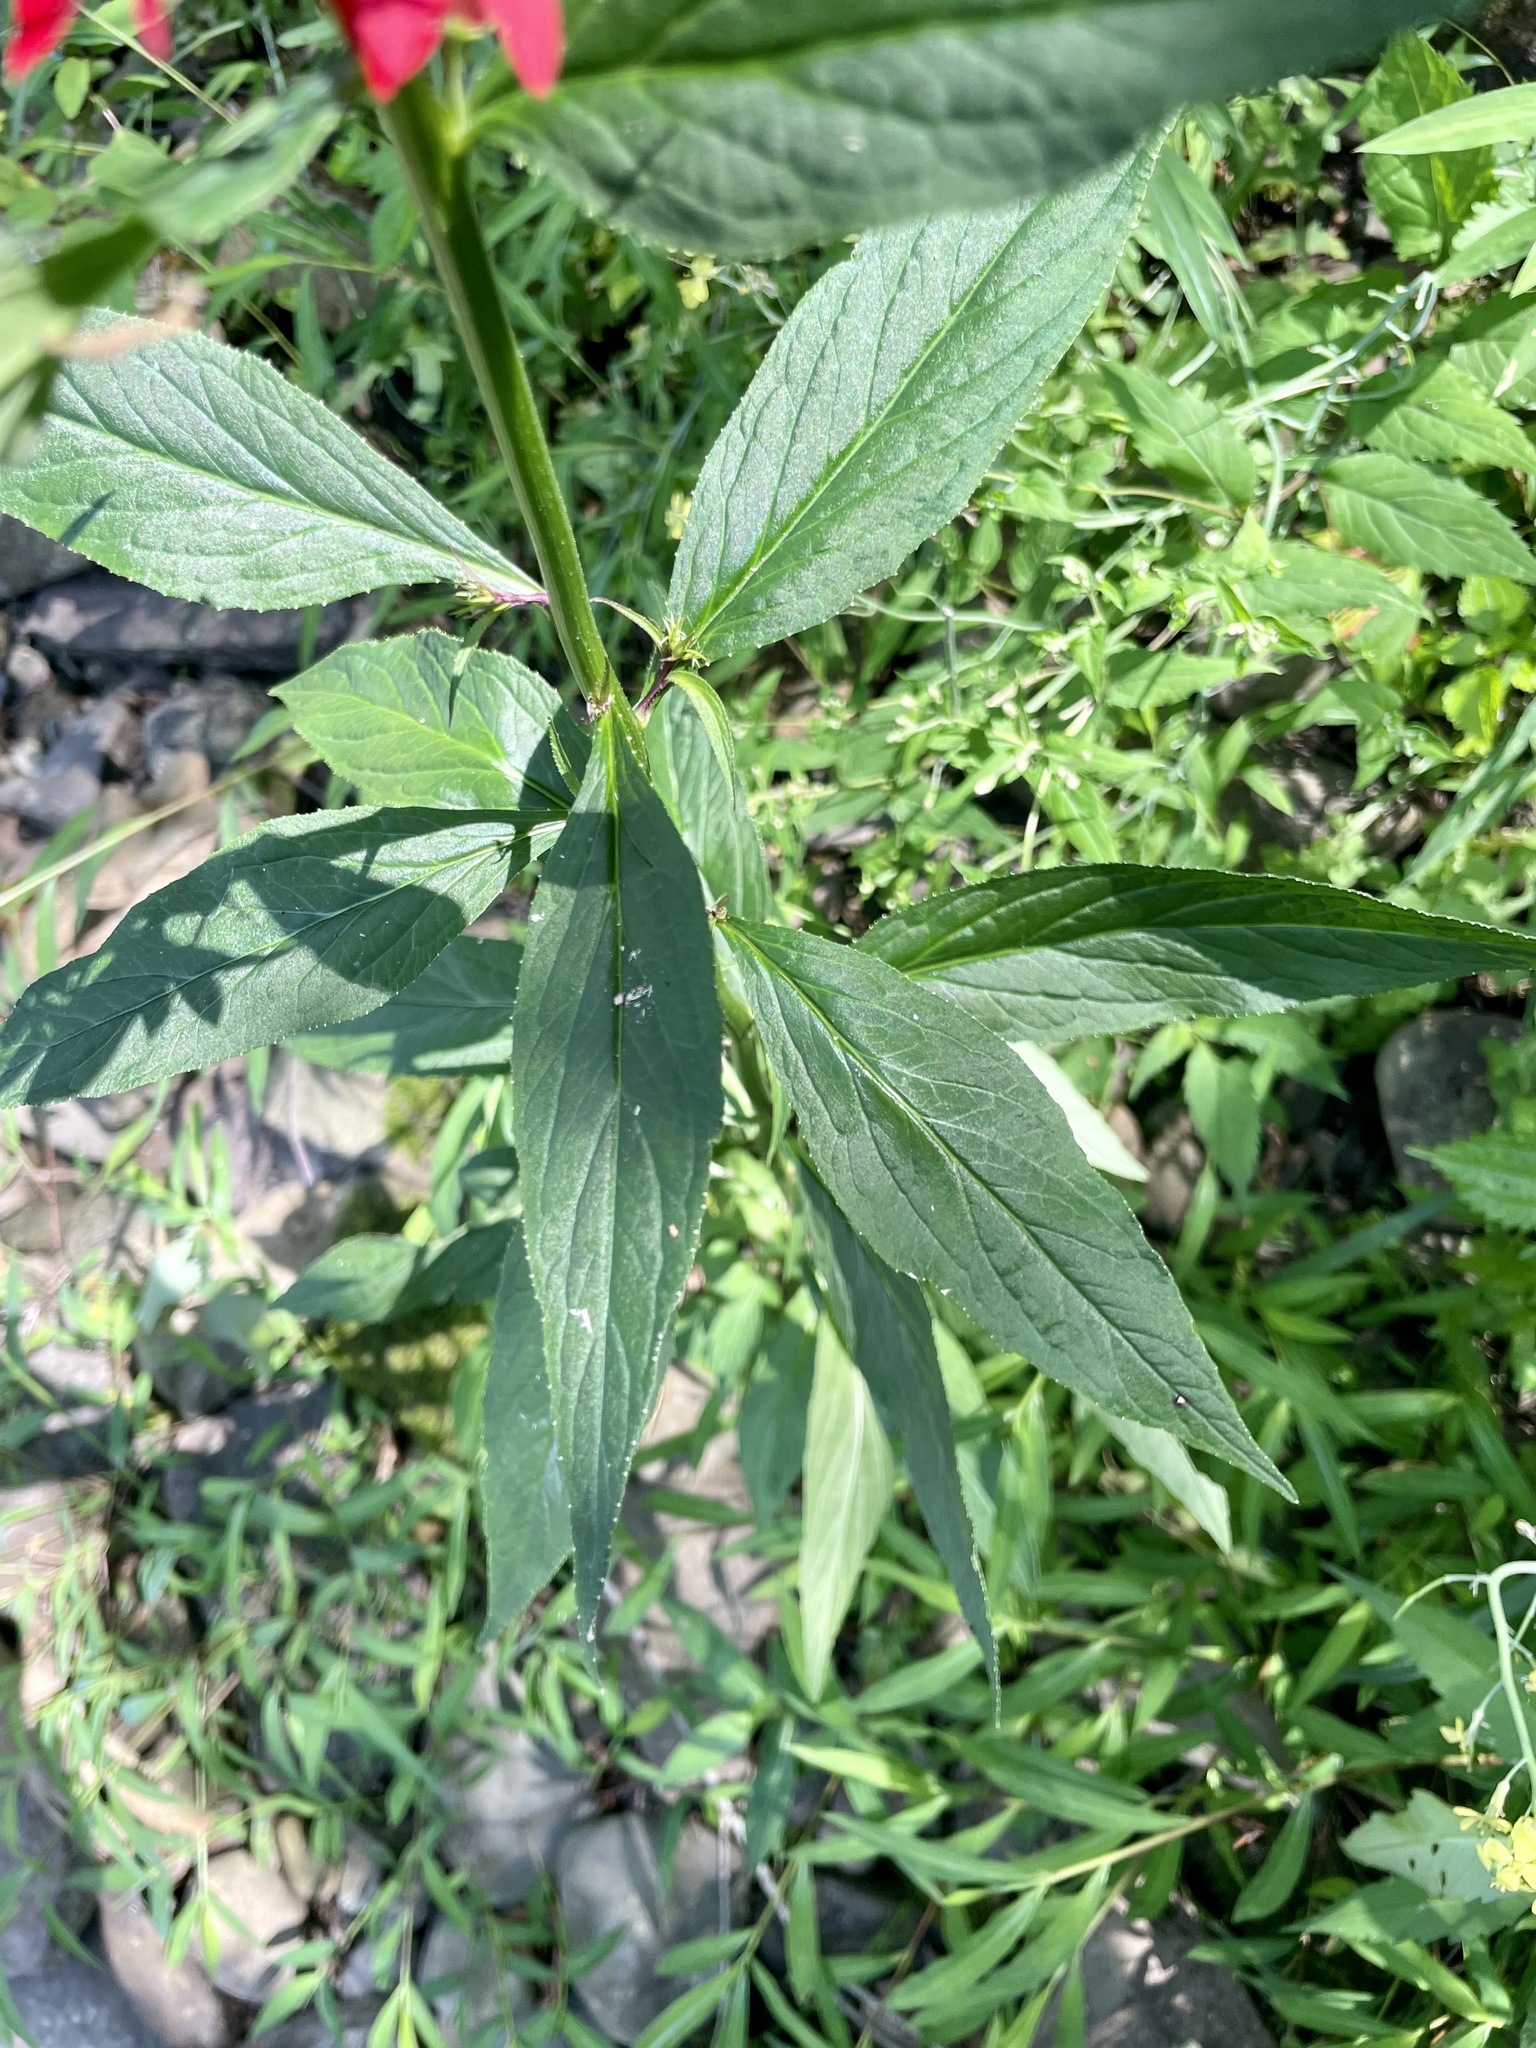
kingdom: Plantae
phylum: Tracheophyta
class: Magnoliopsida
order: Asterales
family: Campanulaceae
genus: Lobelia
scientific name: Lobelia cardinalis
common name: Cardinal flower
